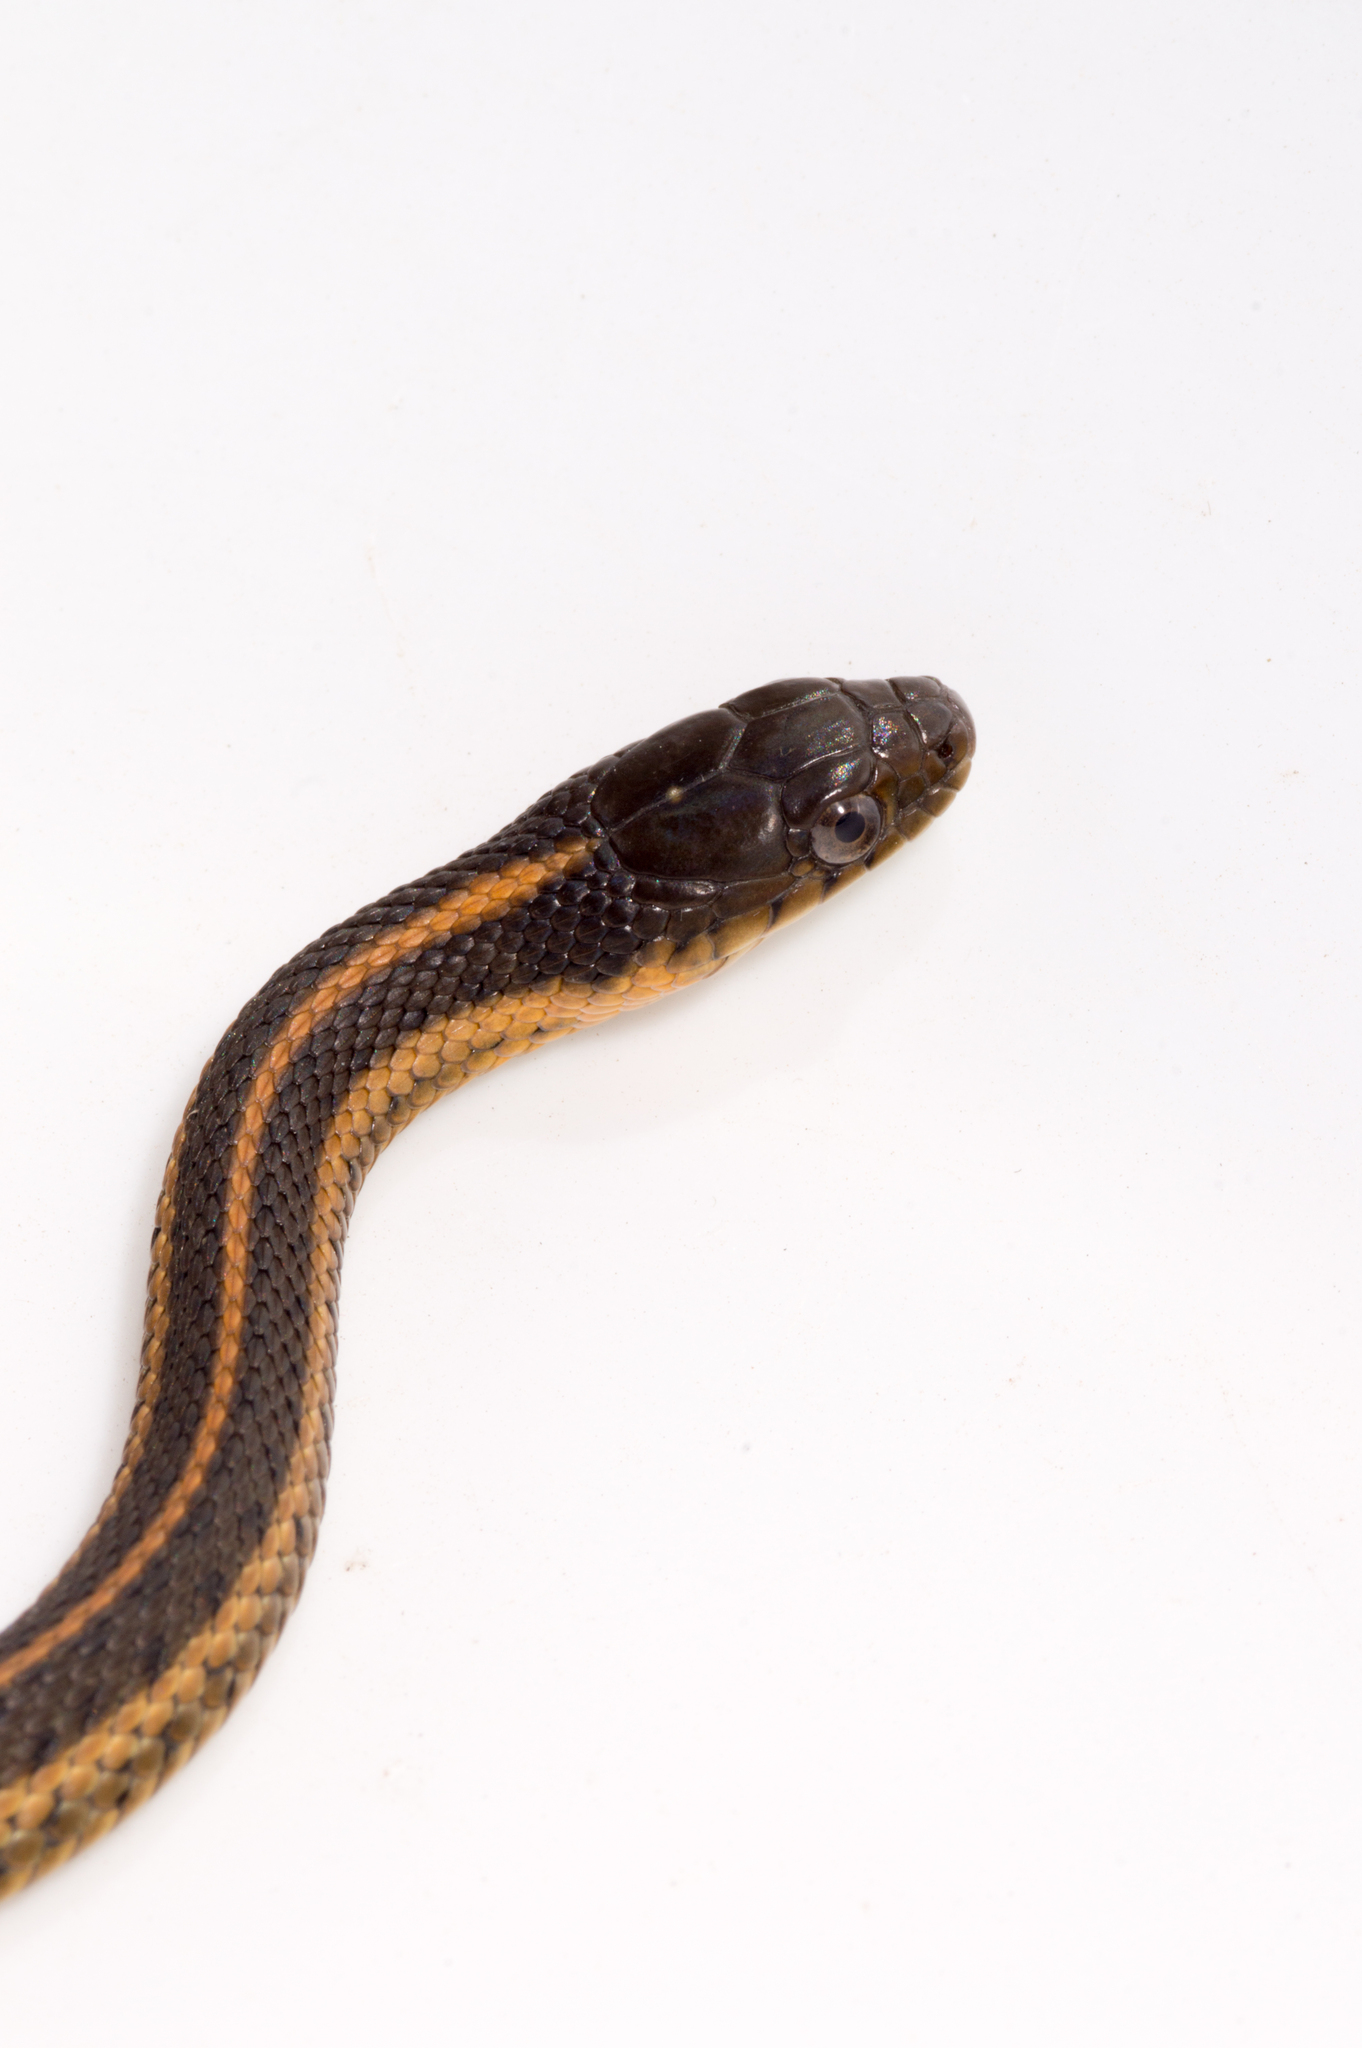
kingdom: Animalia
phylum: Chordata
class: Squamata
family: Colubridae
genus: Thamnophis
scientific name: Thamnophis atratus
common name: Pacific coast aquatic garter snake
